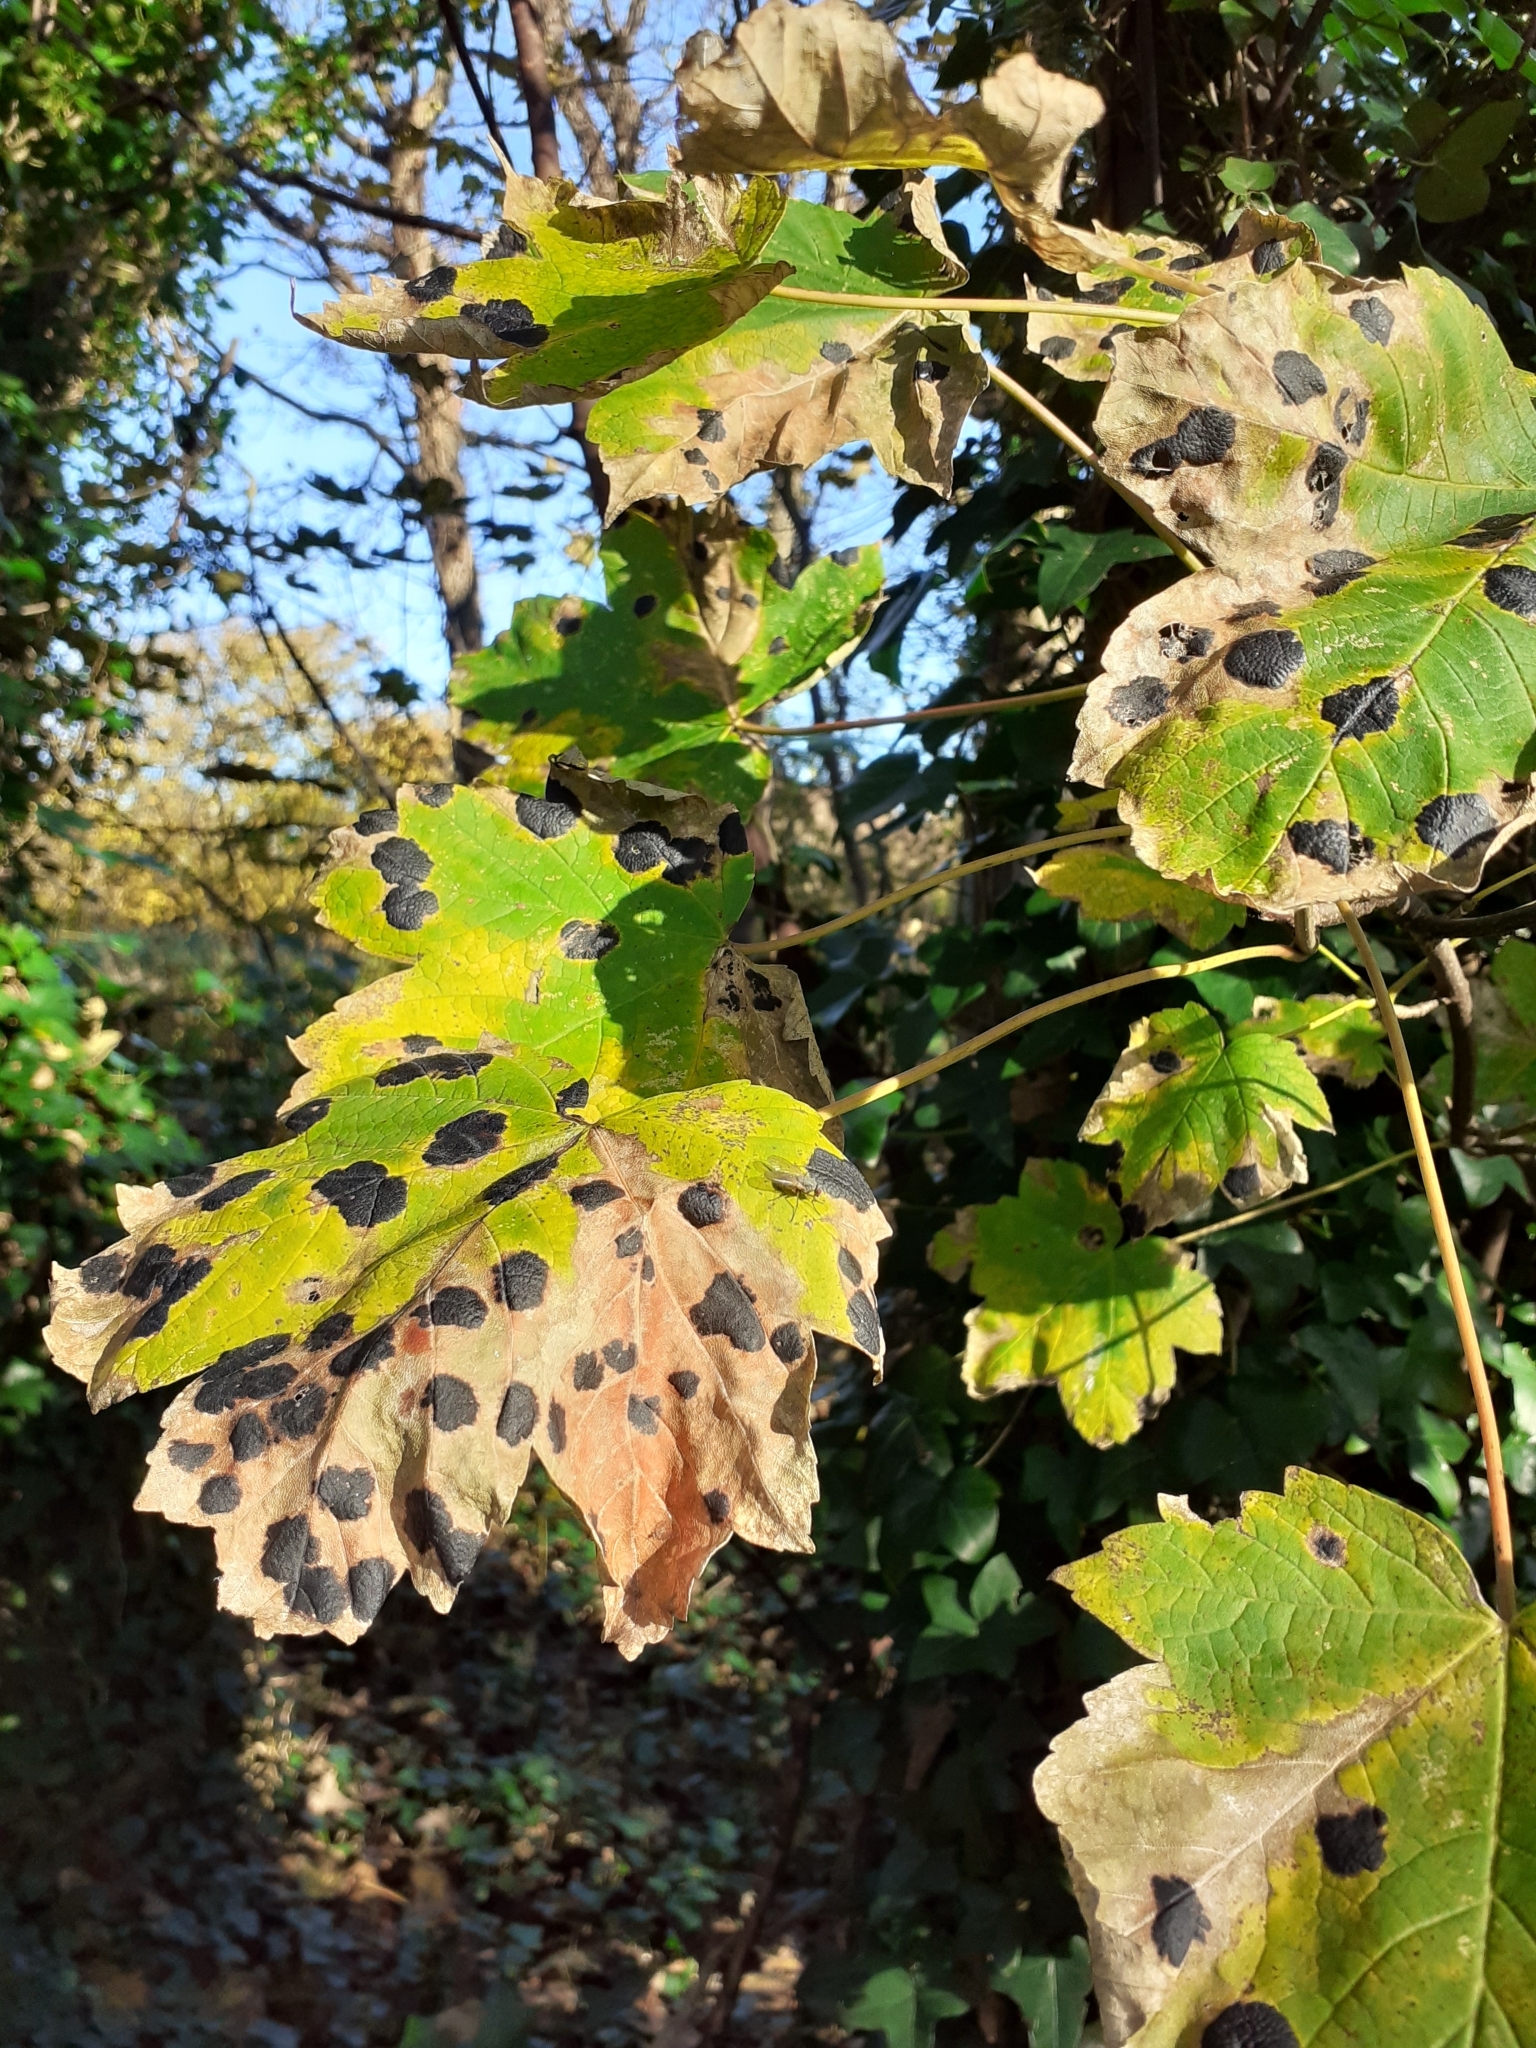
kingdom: Fungi
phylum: Ascomycota
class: Leotiomycetes
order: Rhytismatales
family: Rhytismataceae
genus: Rhytisma
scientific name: Rhytisma acerinum
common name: European tar spot
